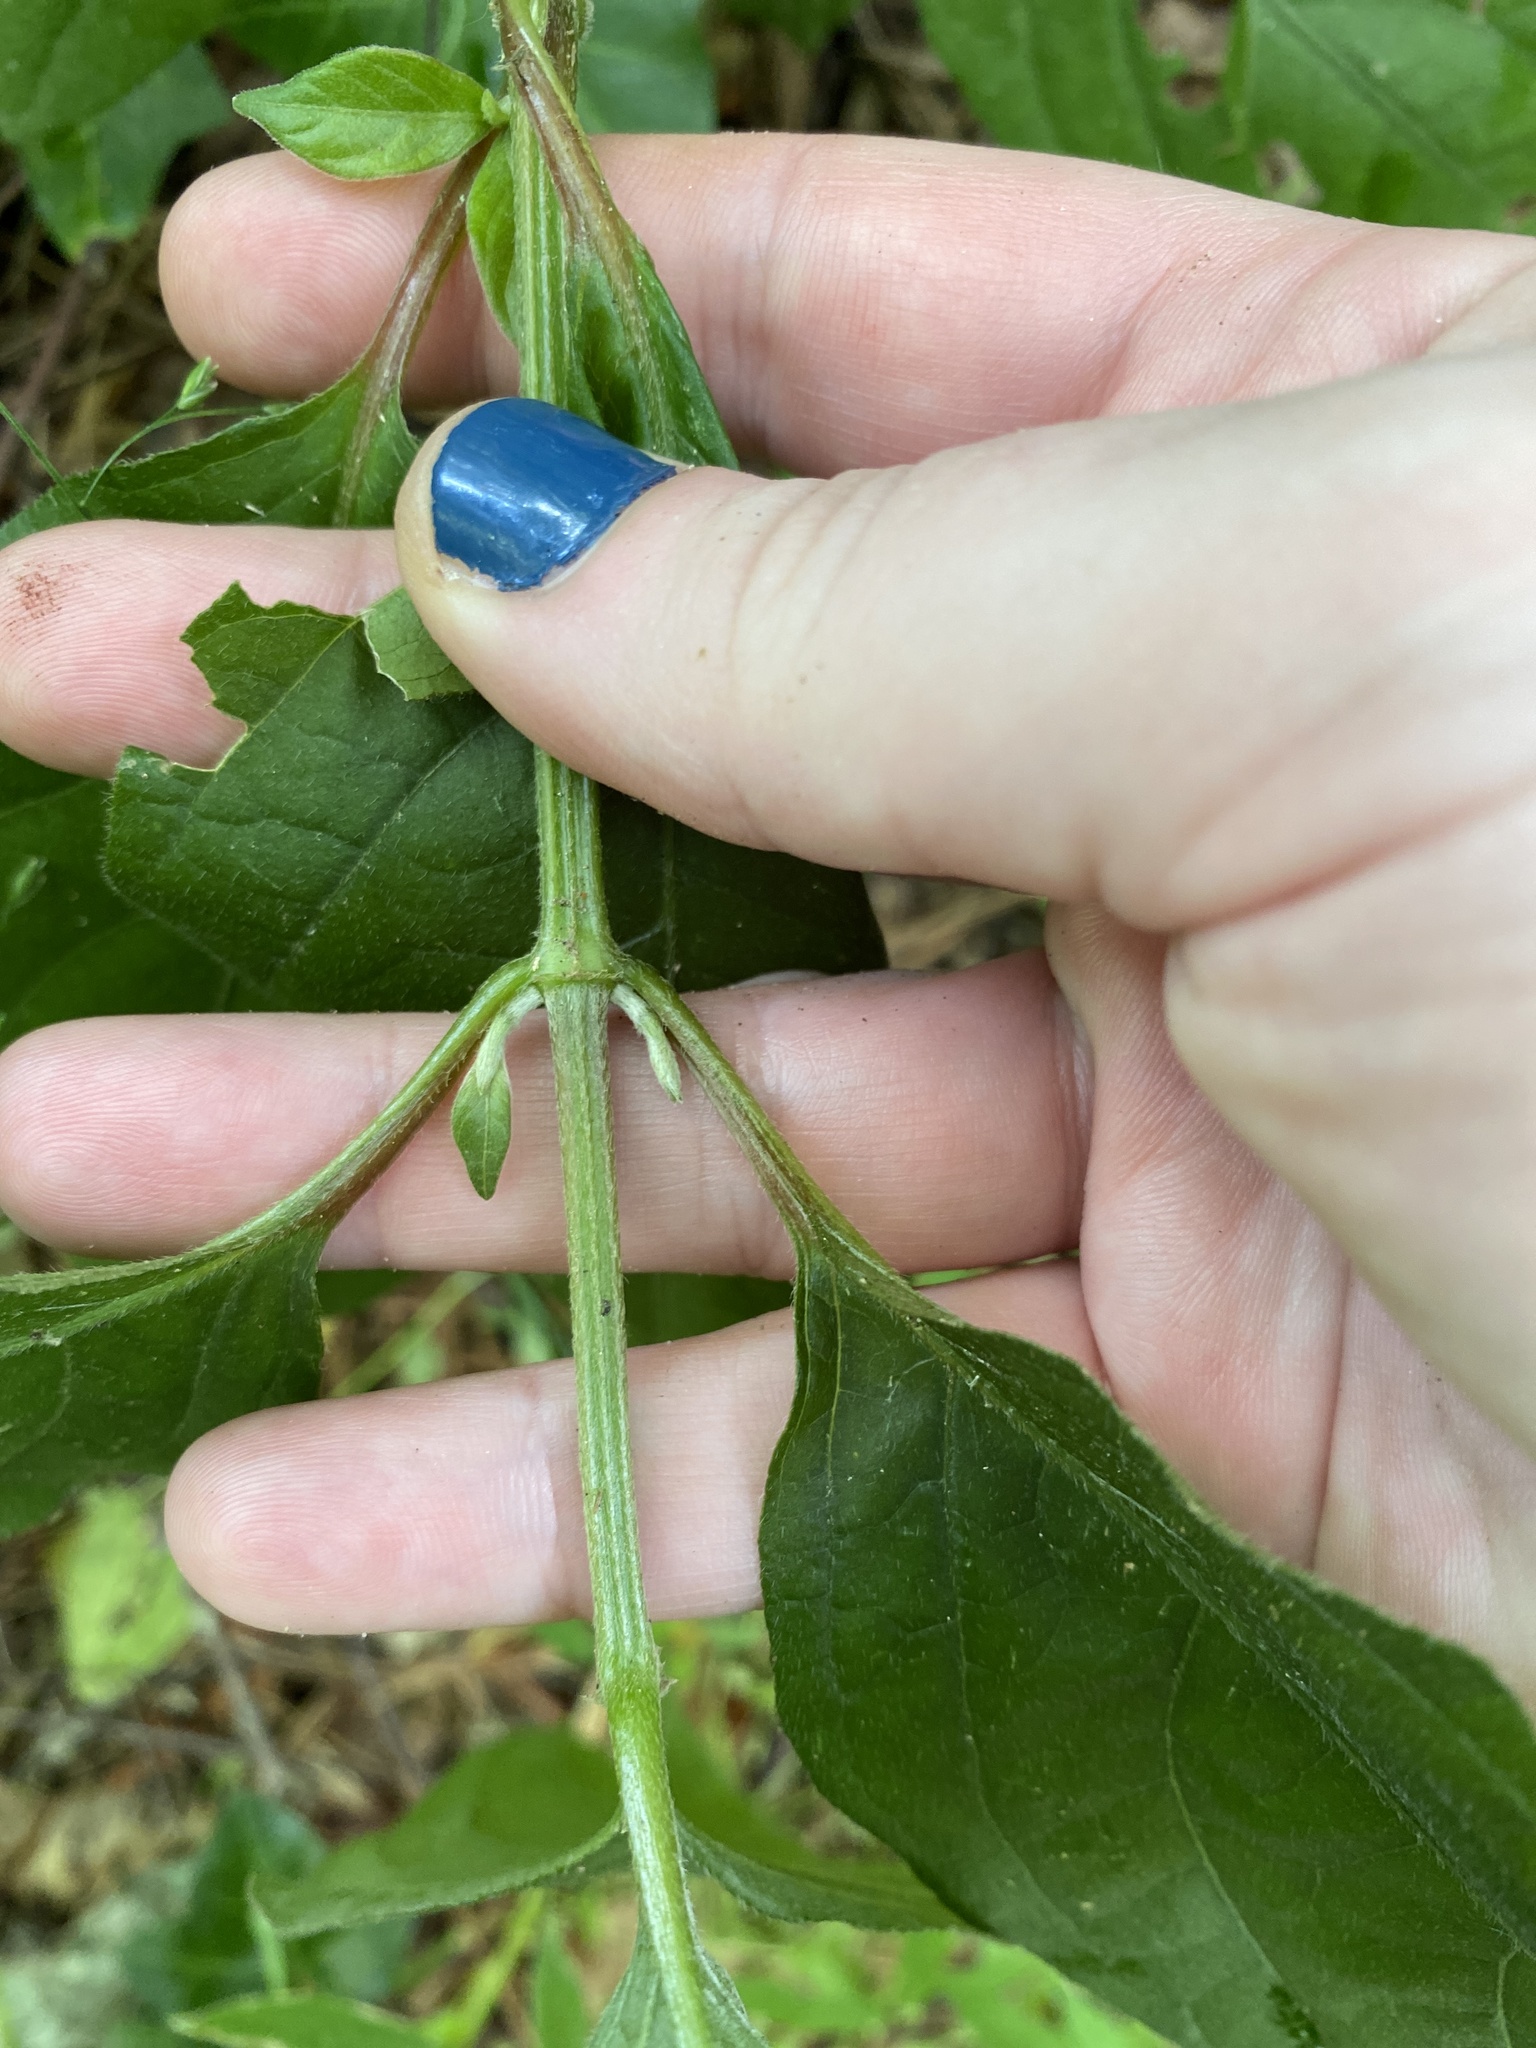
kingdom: Plantae
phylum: Tracheophyta
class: Magnoliopsida
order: Caryophyllales
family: Amaranthaceae
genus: Achyranthes
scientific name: Achyranthes bidentata
